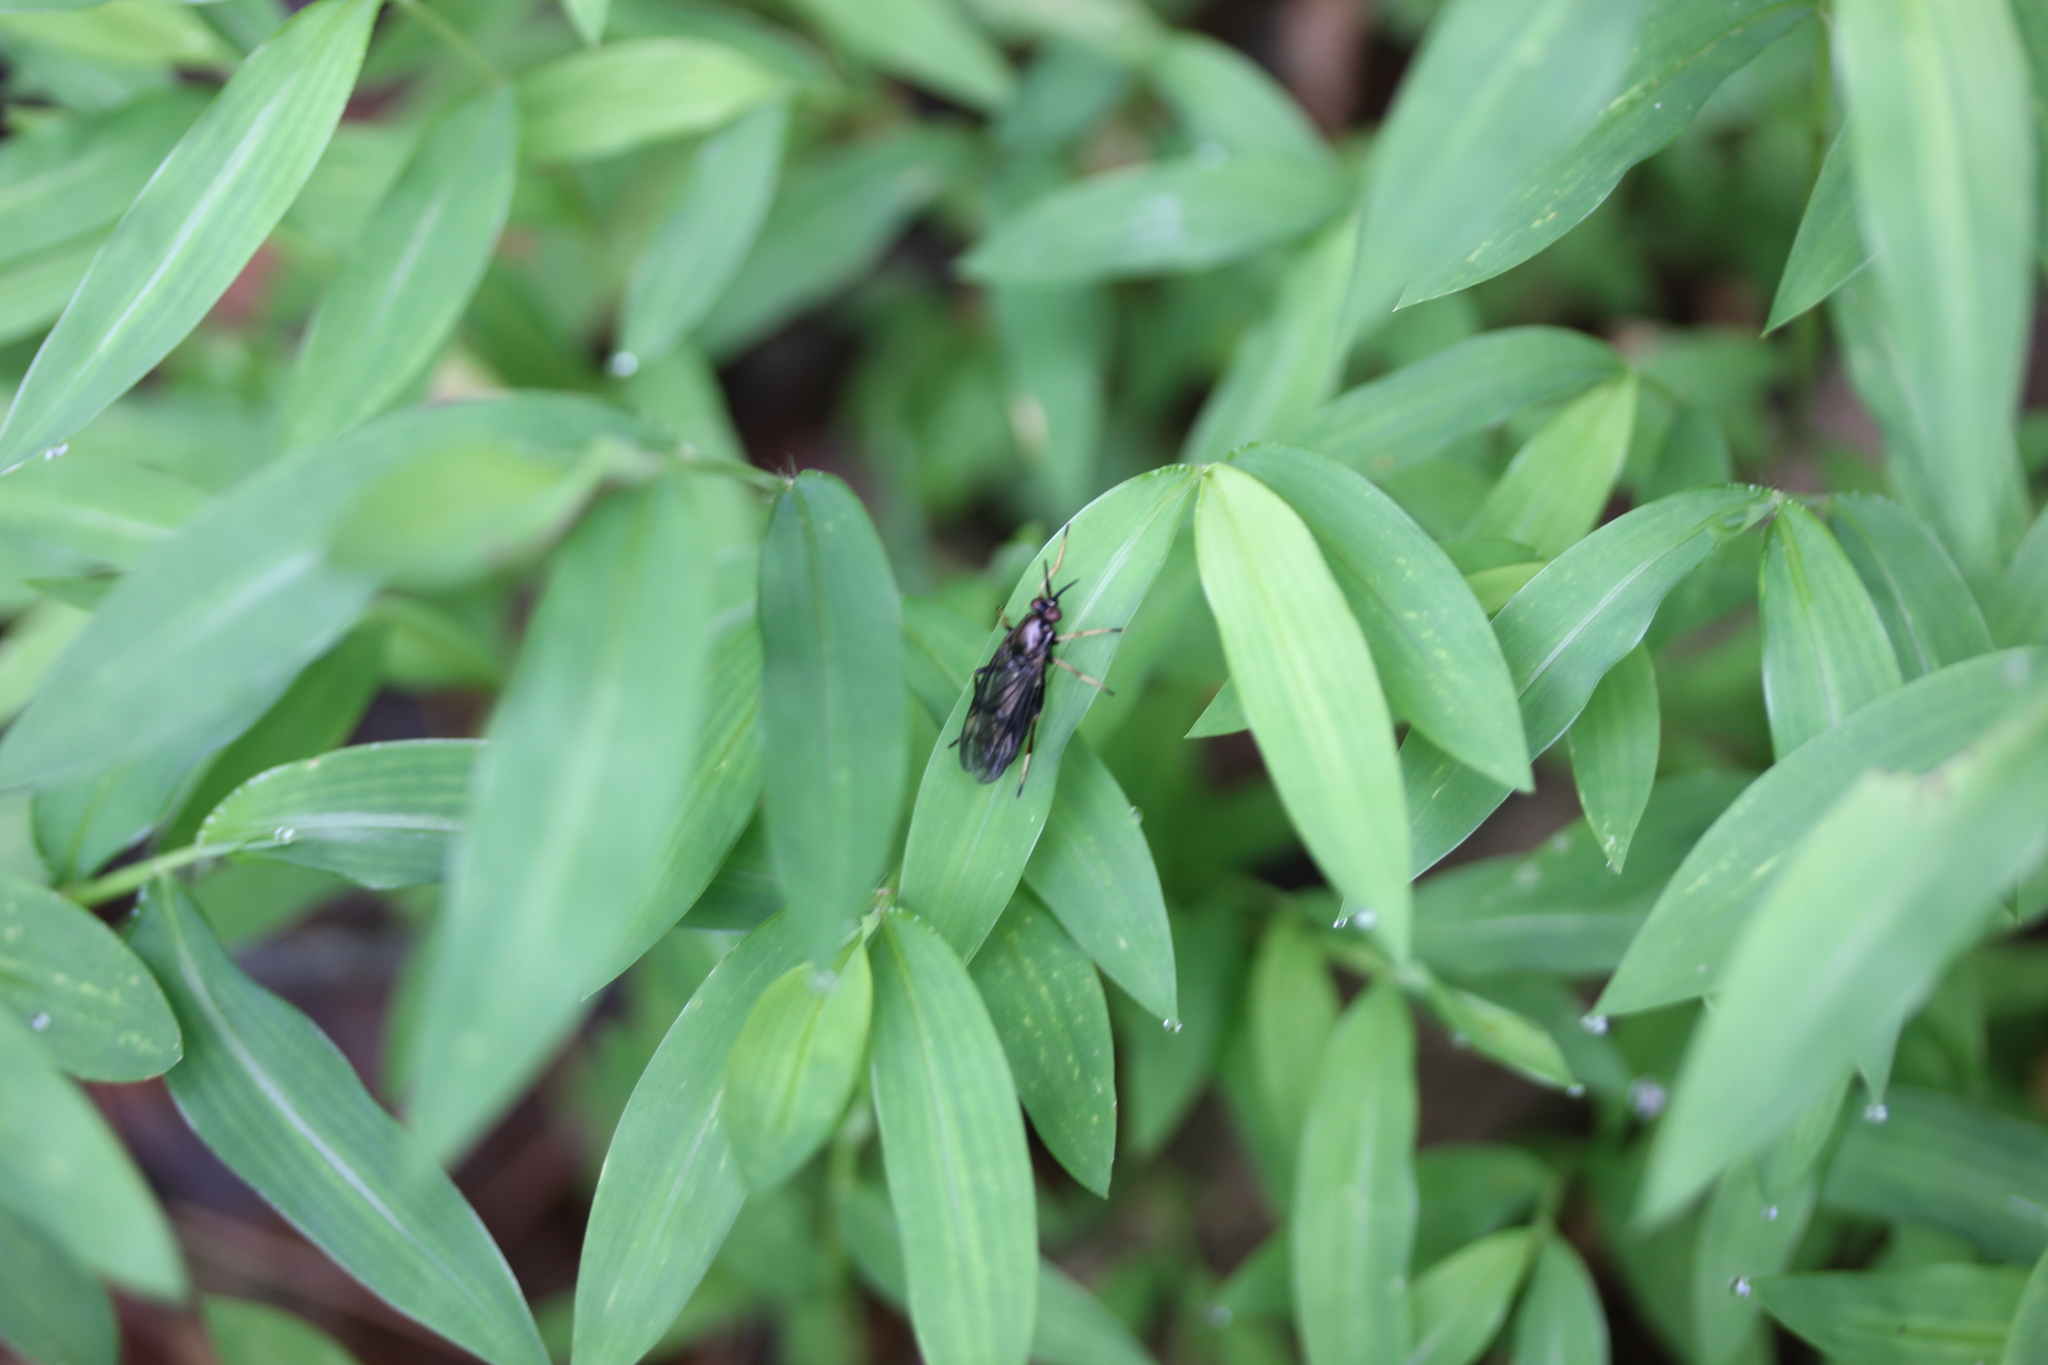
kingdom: Plantae
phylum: Tracheophyta
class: Liliopsida
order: Poales
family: Poaceae
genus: Microstegium
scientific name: Microstegium vimineum
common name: Japanese stiltgrass
